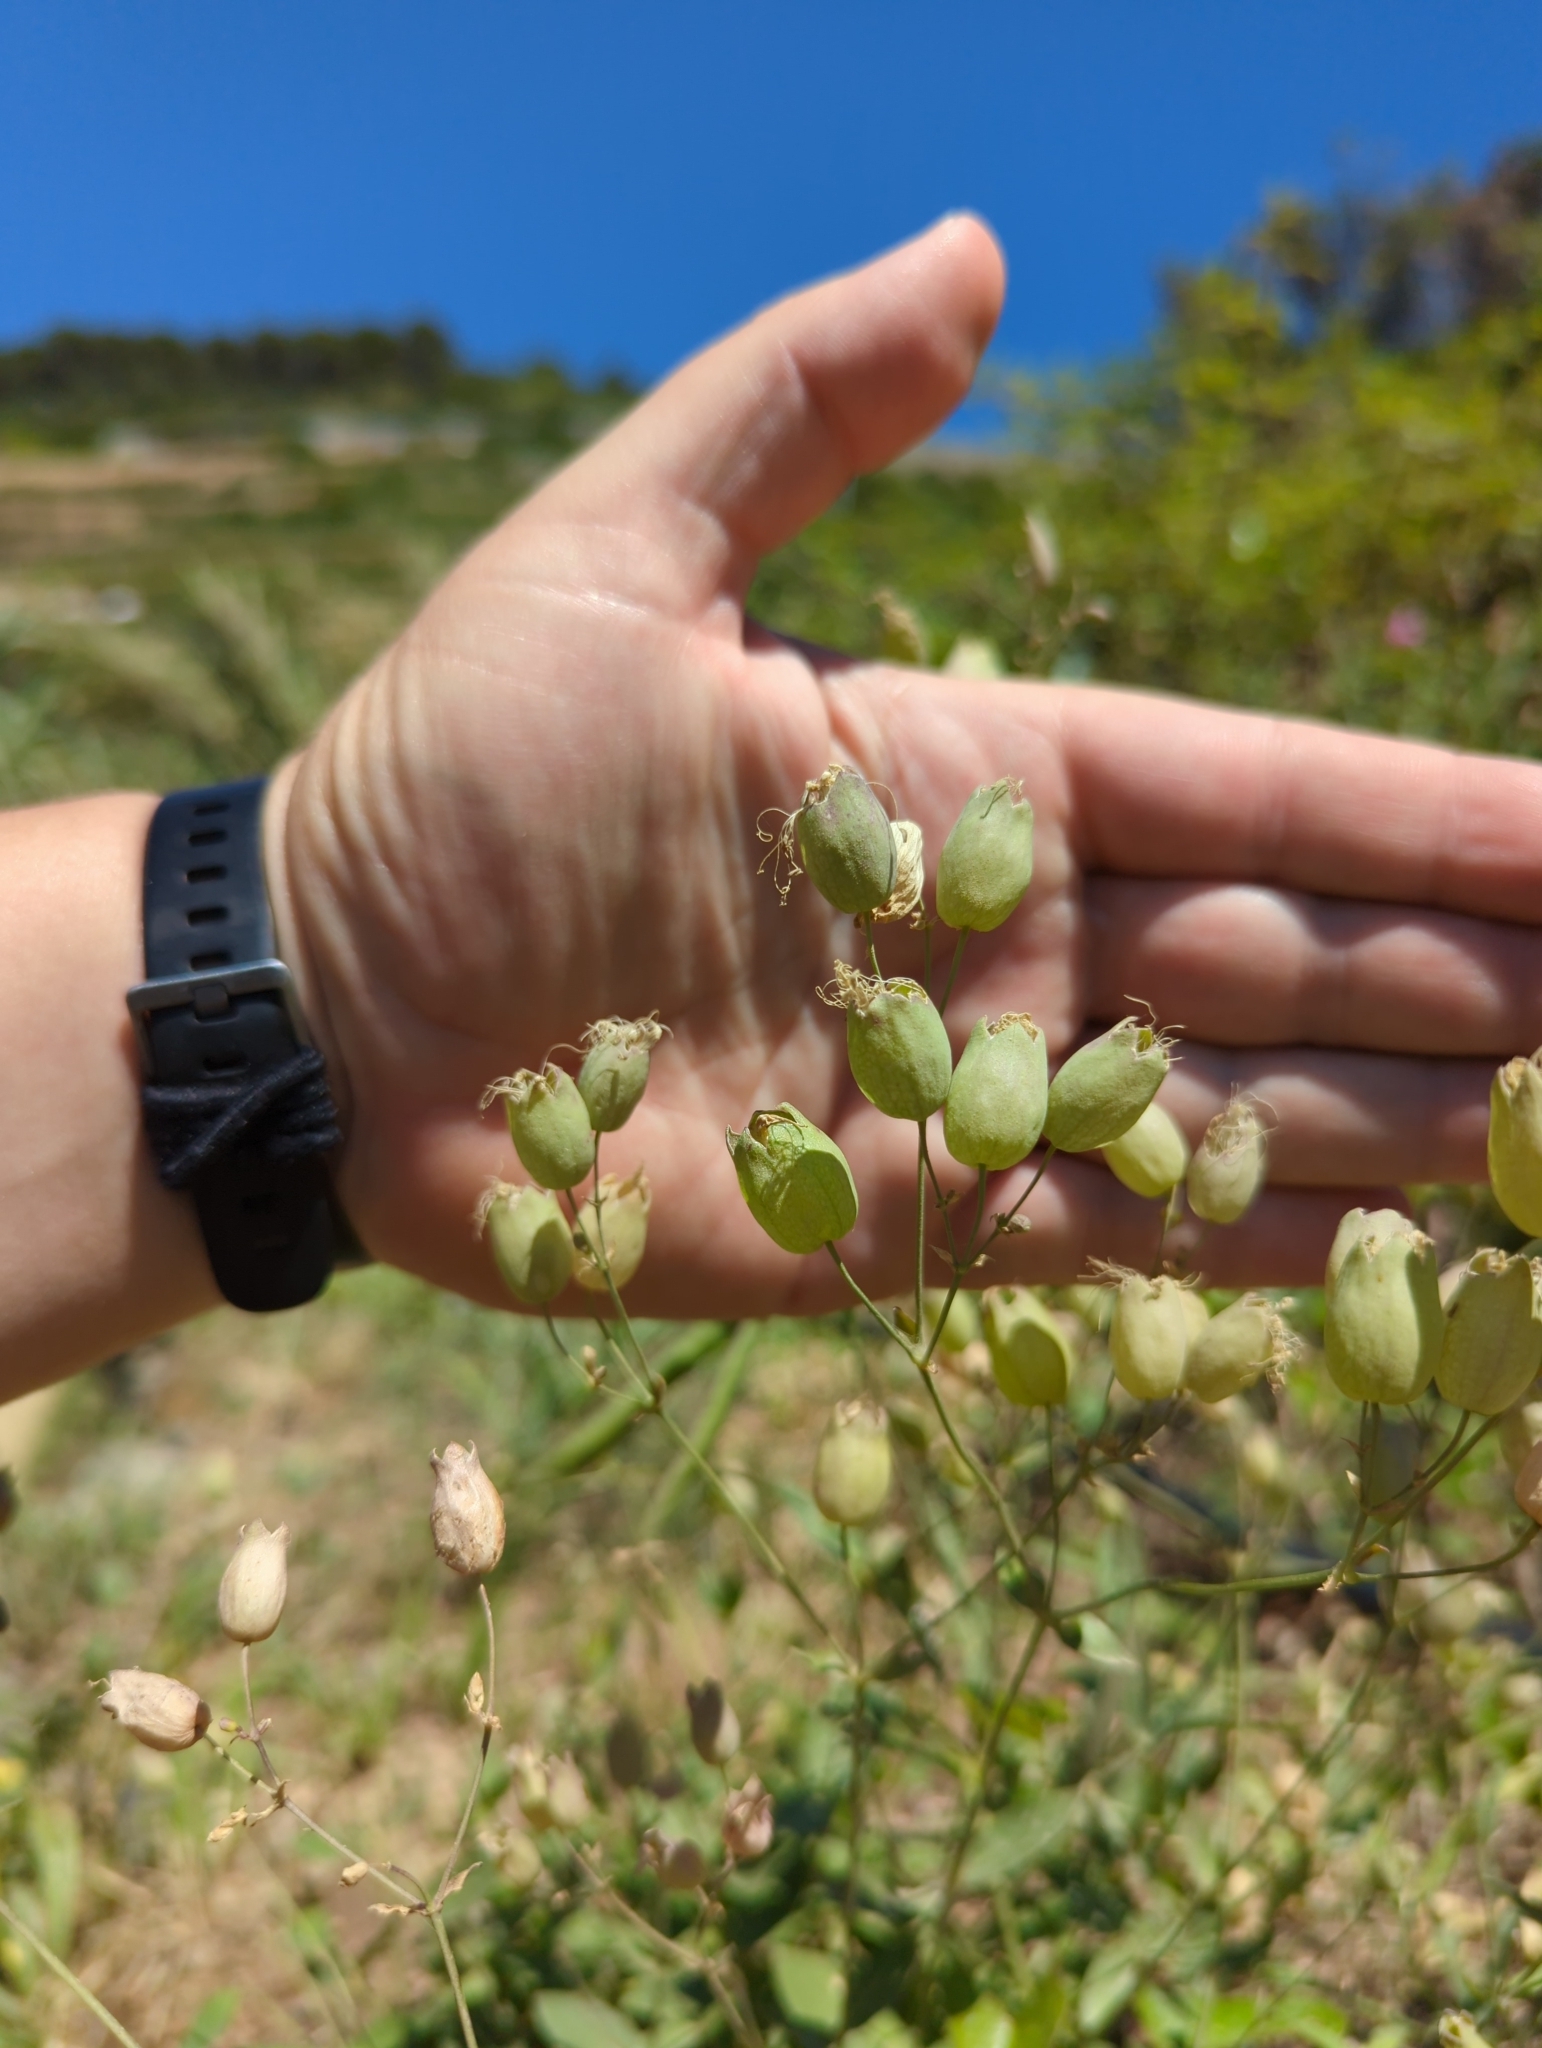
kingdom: Plantae
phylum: Tracheophyta
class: Magnoliopsida
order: Caryophyllales
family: Caryophyllaceae
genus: Silene
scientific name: Silene vulgaris
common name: Bladder campion
